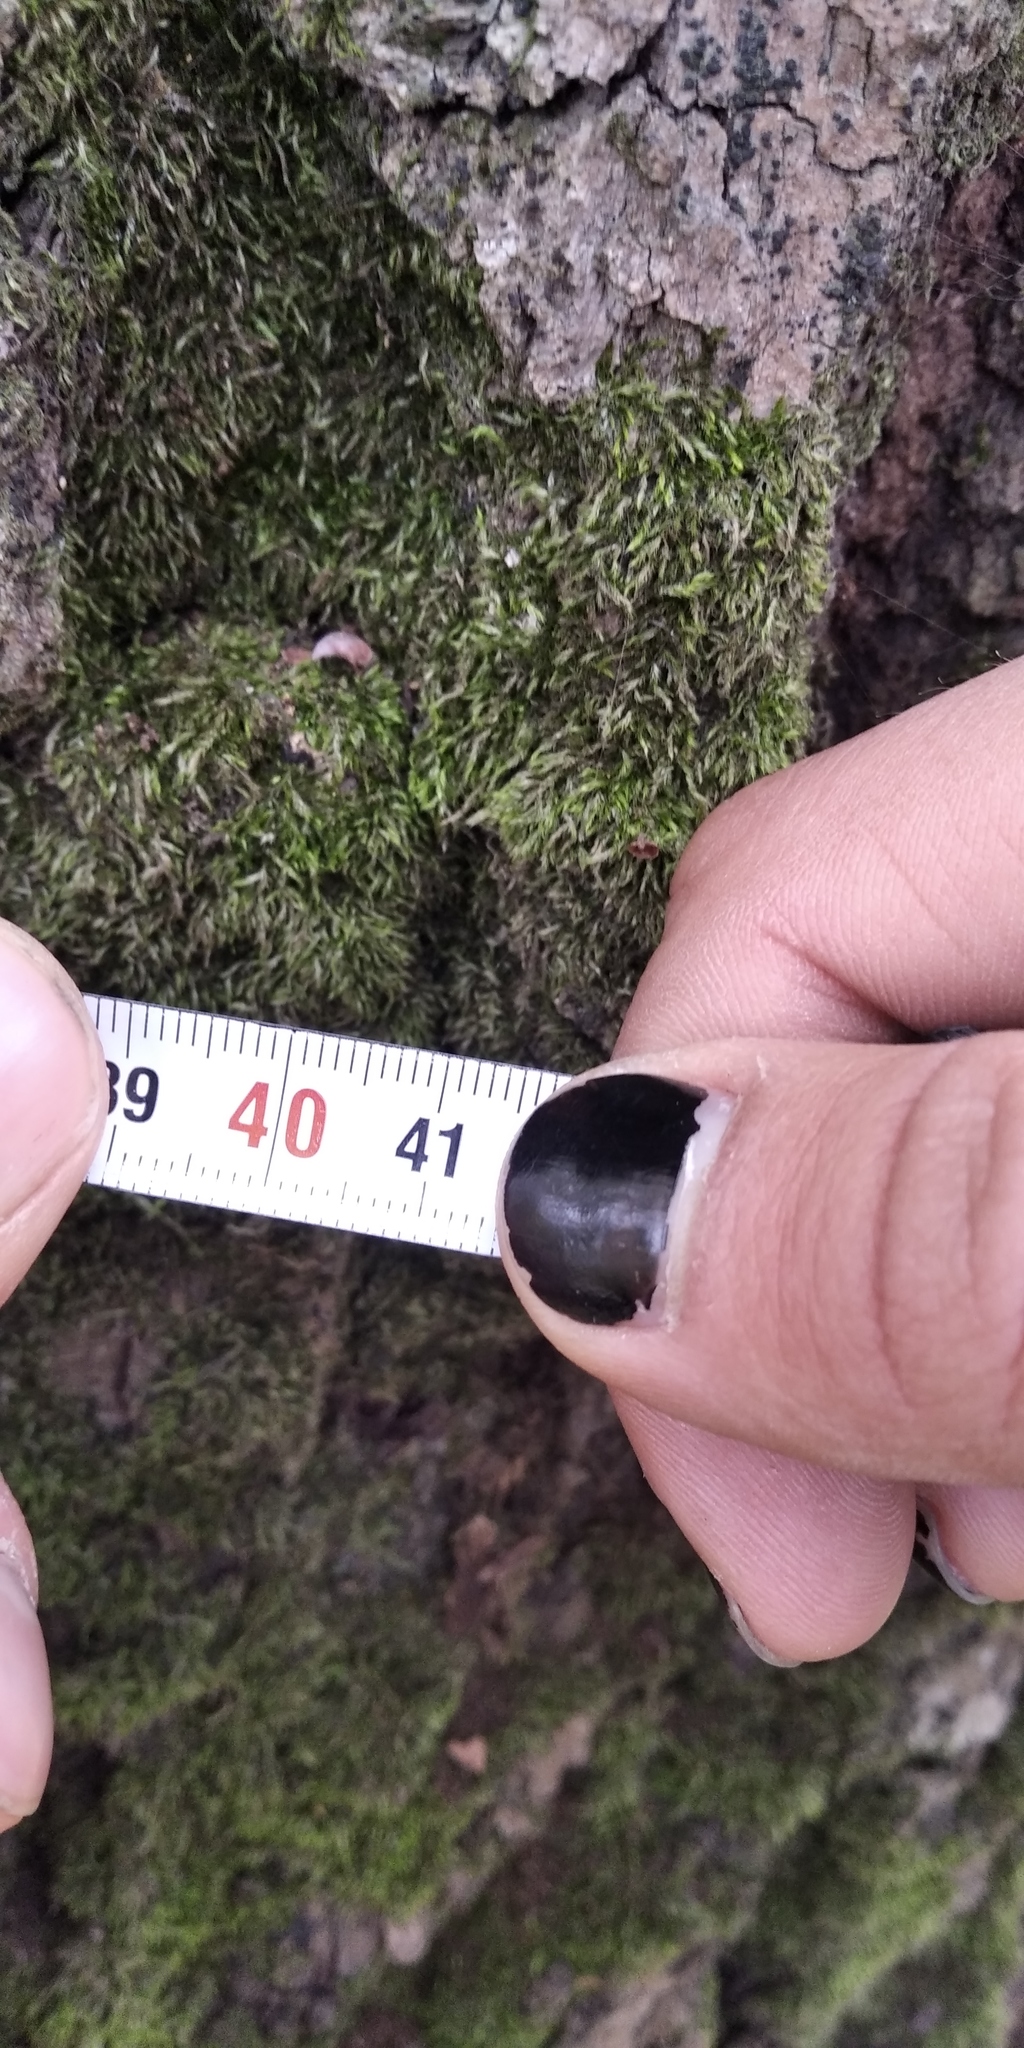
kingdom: Plantae
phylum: Tracheophyta
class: Magnoliopsida
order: Fagales
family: Fagaceae
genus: Quercus
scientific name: Quercus robur
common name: Pedunculate oak
